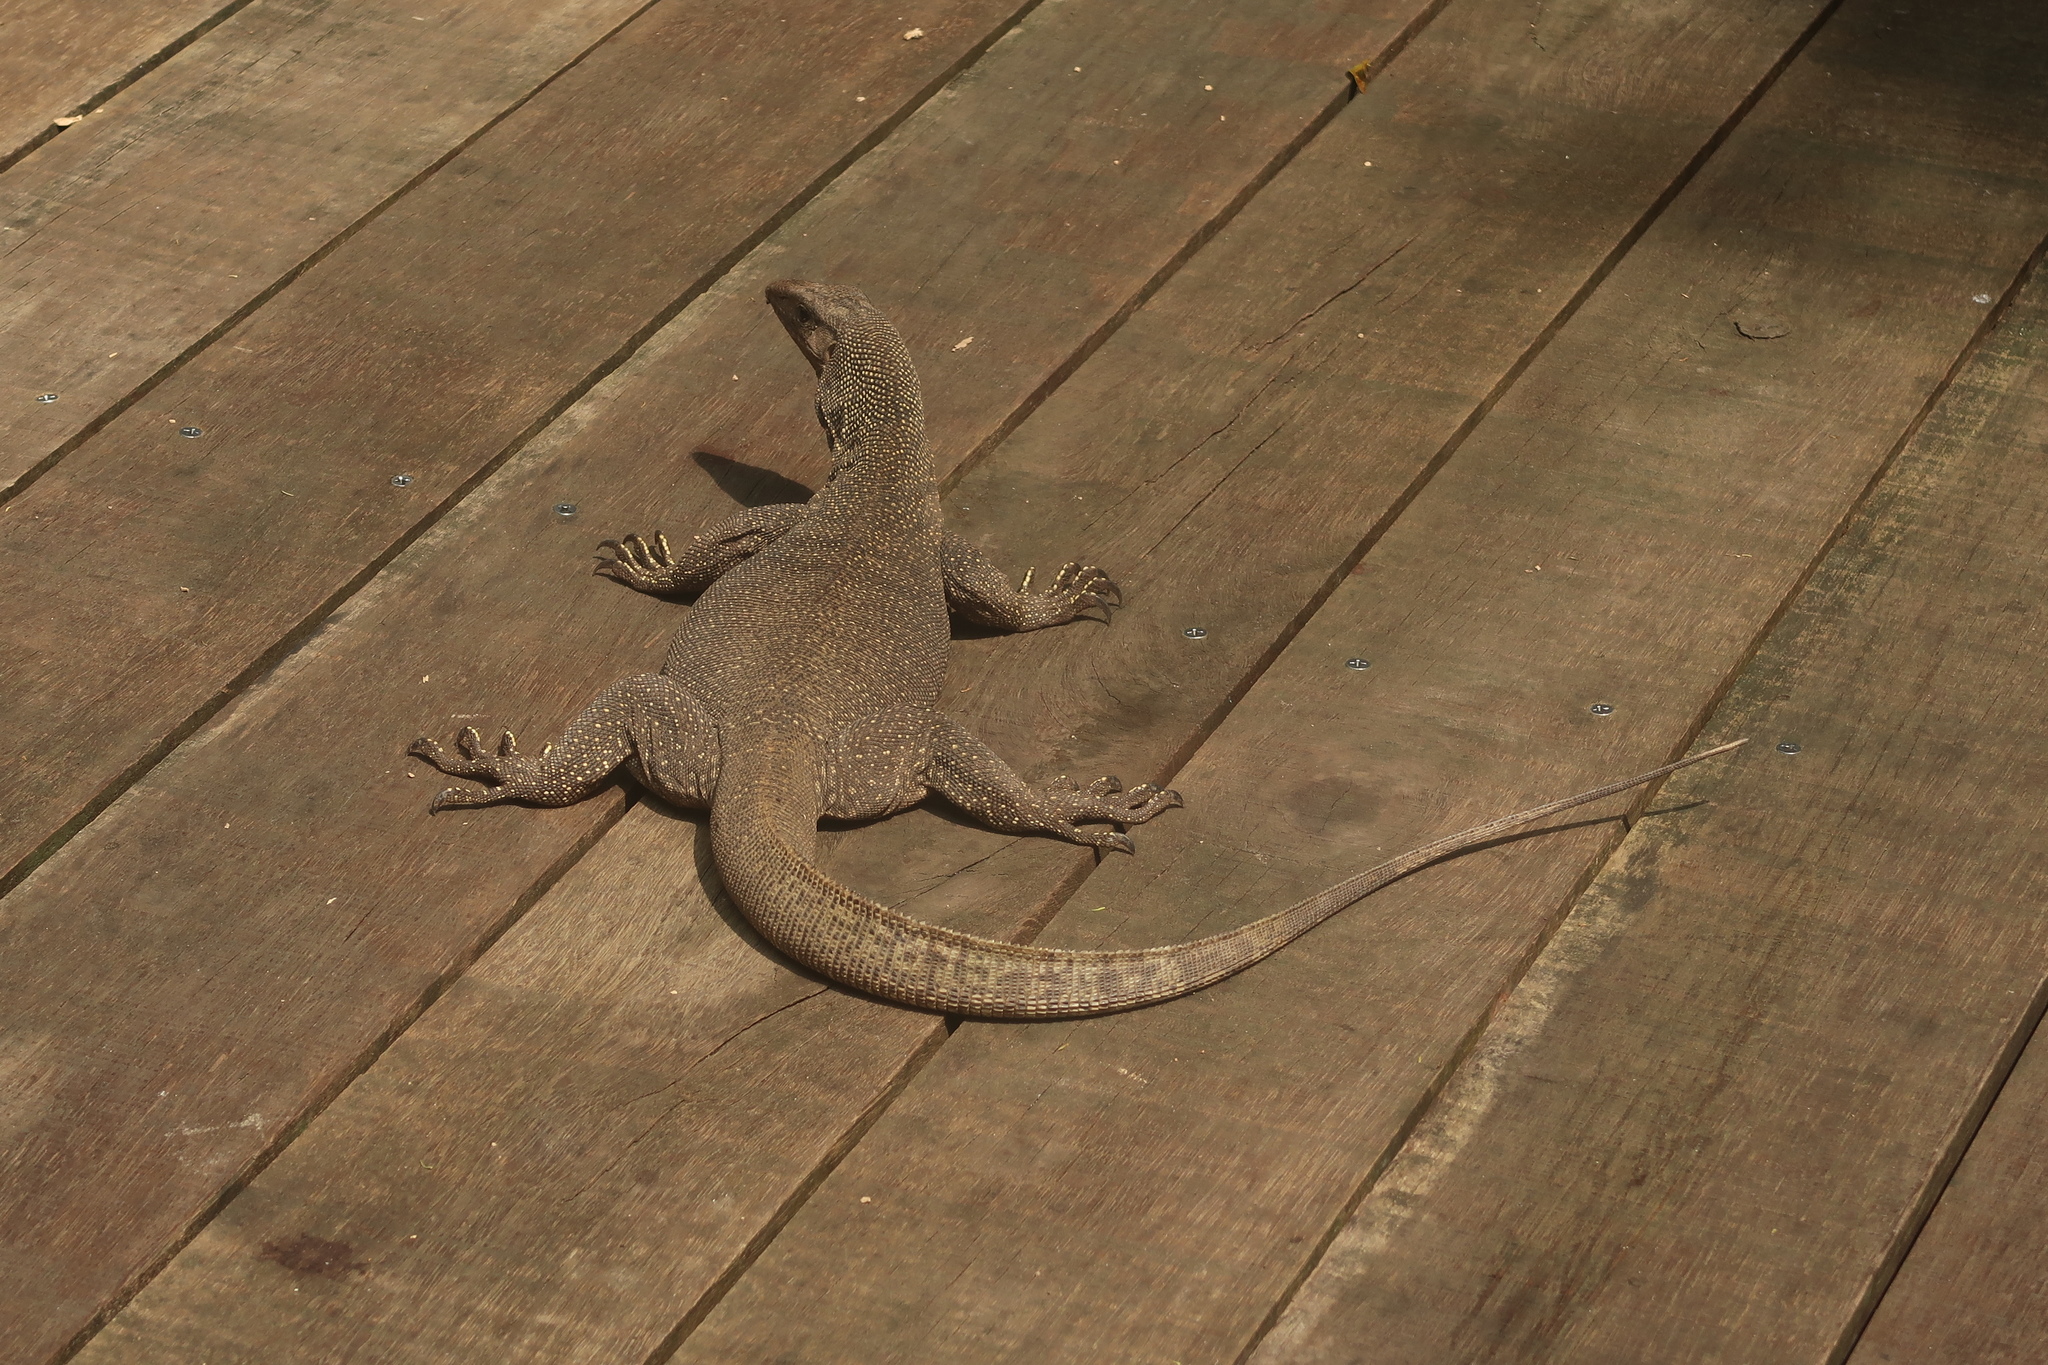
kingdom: Animalia
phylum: Chordata
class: Squamata
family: Varanidae
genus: Varanus
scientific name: Varanus nebulosus
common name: Clouded monitor
